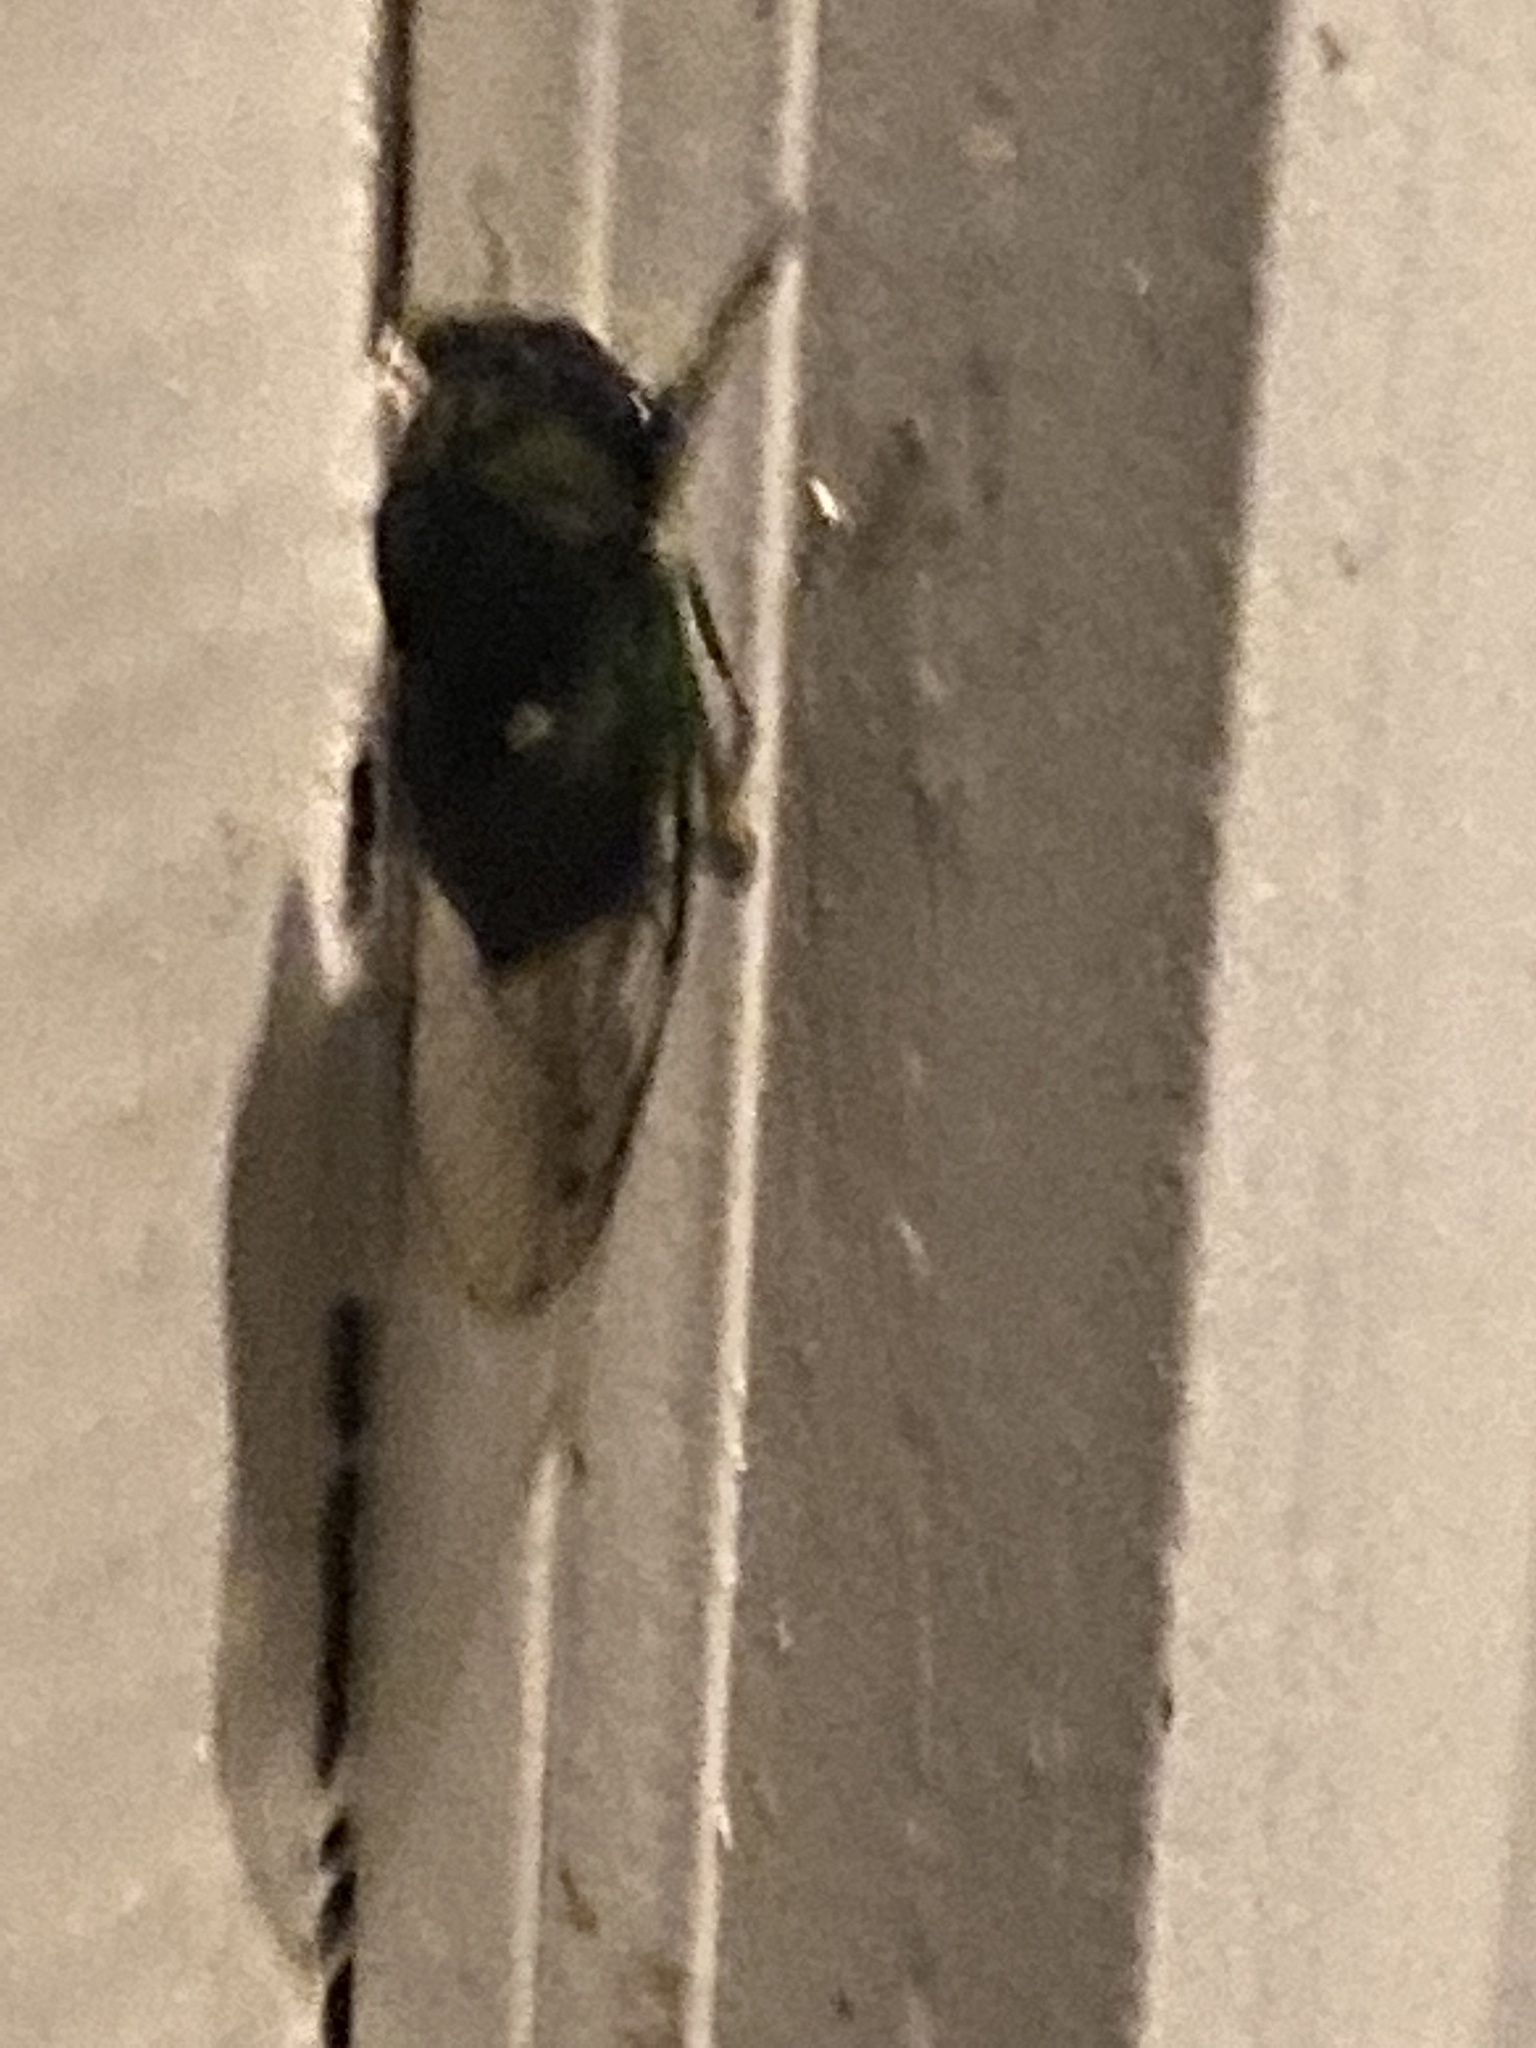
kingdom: Animalia
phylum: Arthropoda
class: Insecta
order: Hemiptera
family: Cicadidae
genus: Neotibicen
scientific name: Neotibicen tibicen
